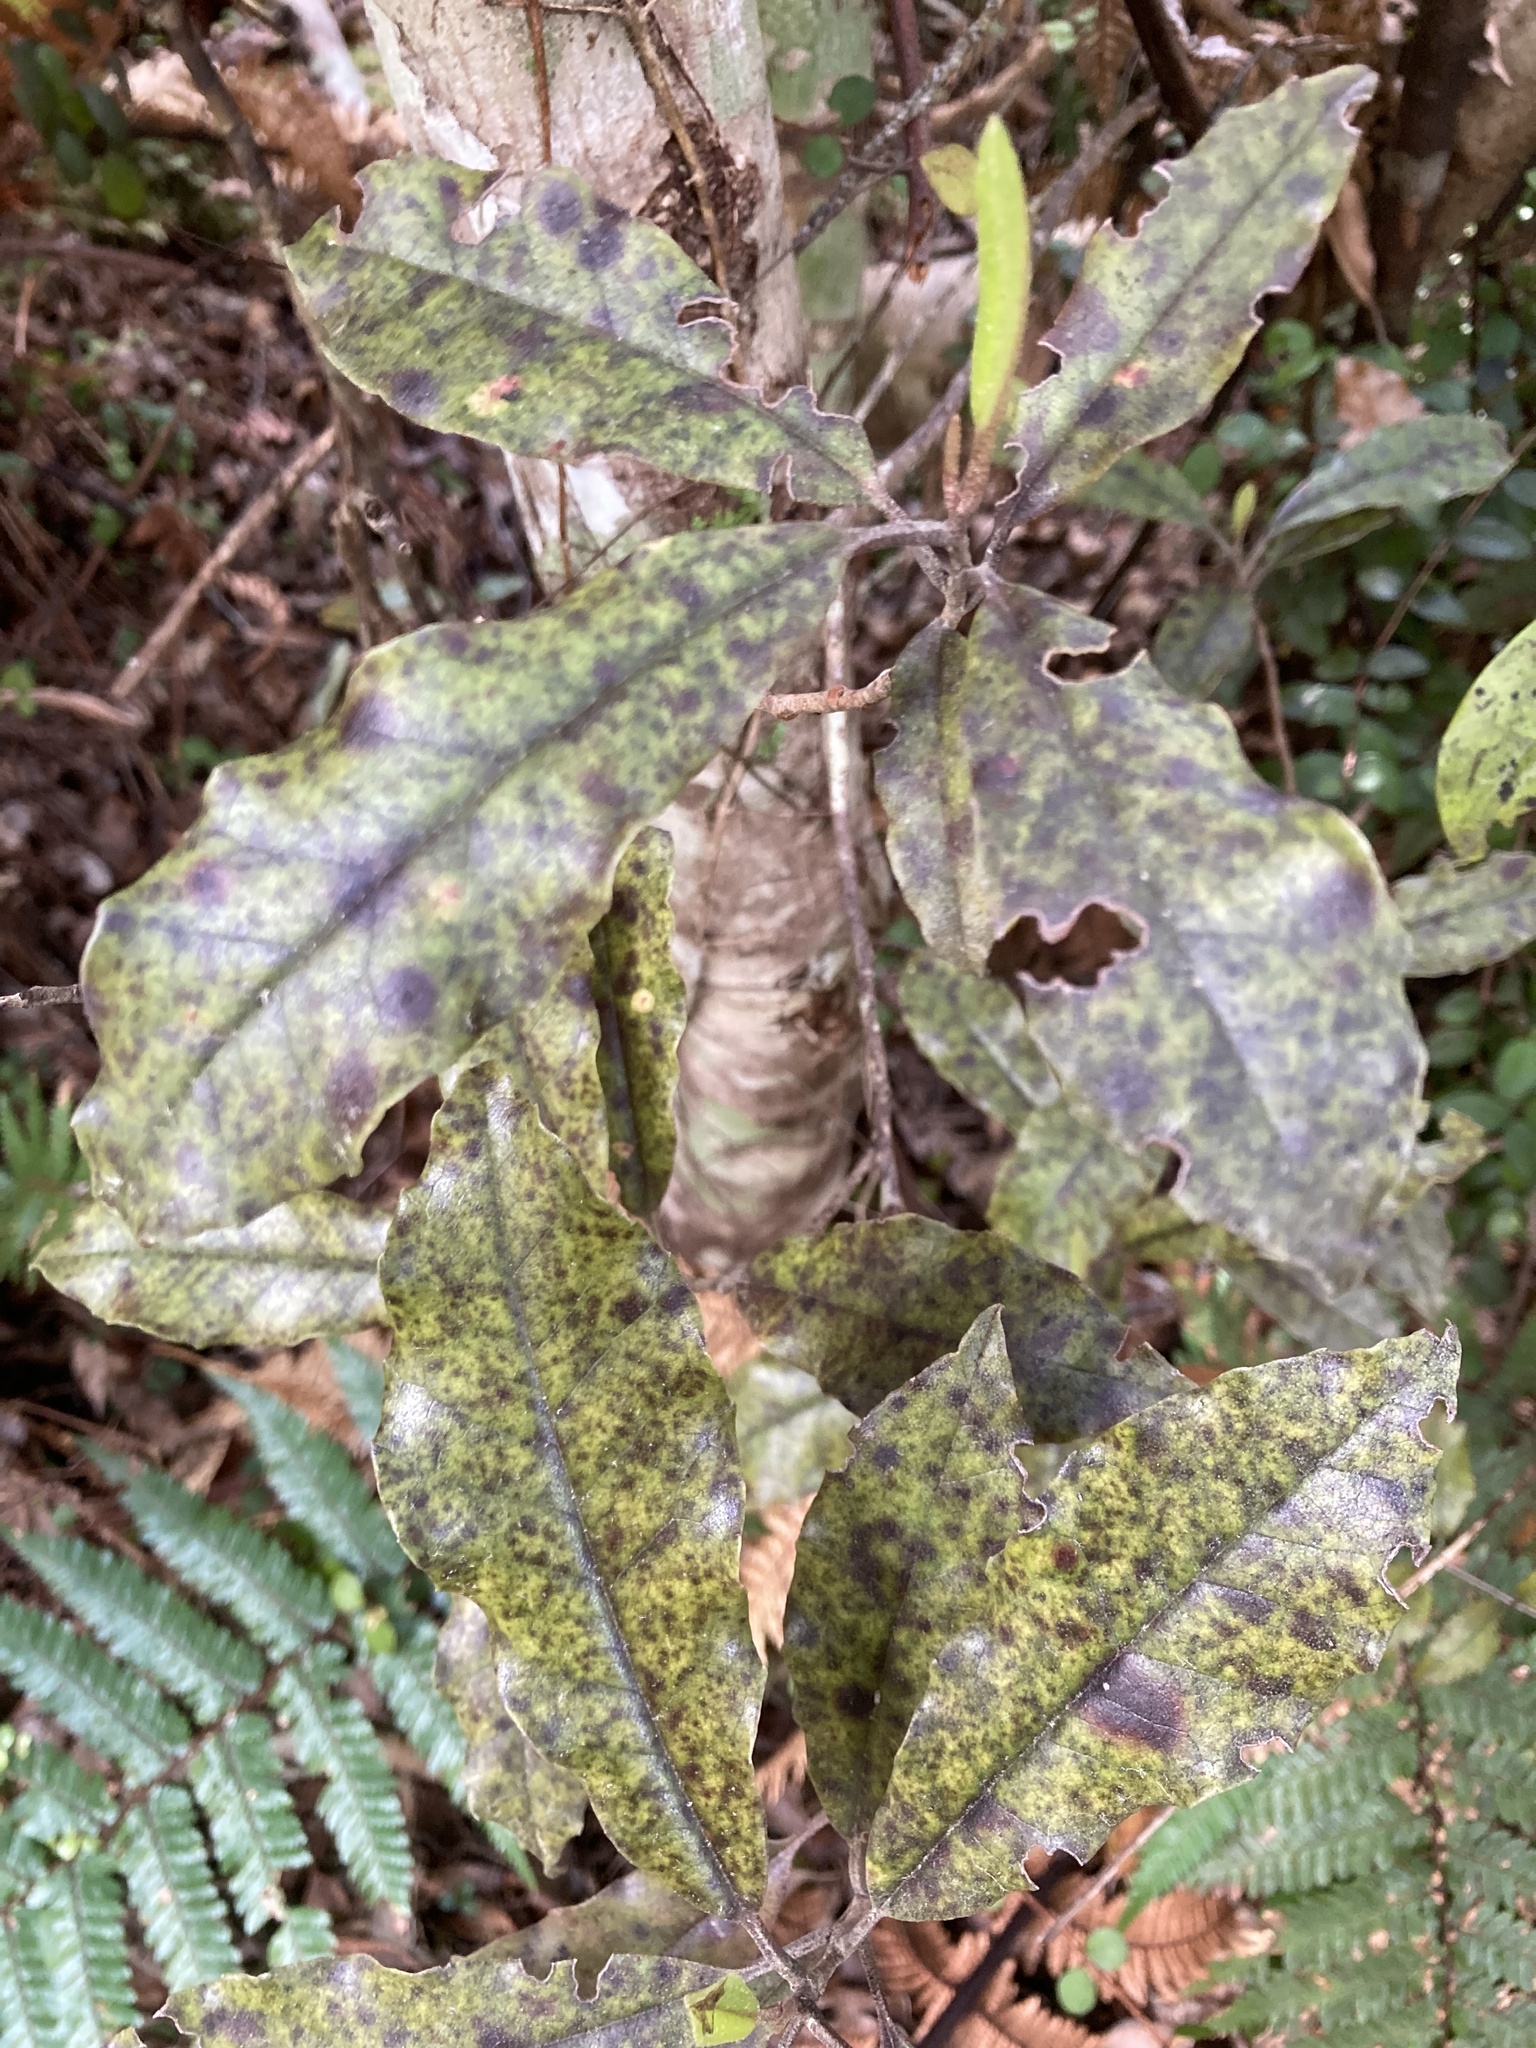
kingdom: Plantae
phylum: Tracheophyta
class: Magnoliopsida
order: Paracryphiales
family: Paracryphiaceae
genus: Quintinia
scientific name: Quintinia serrata
